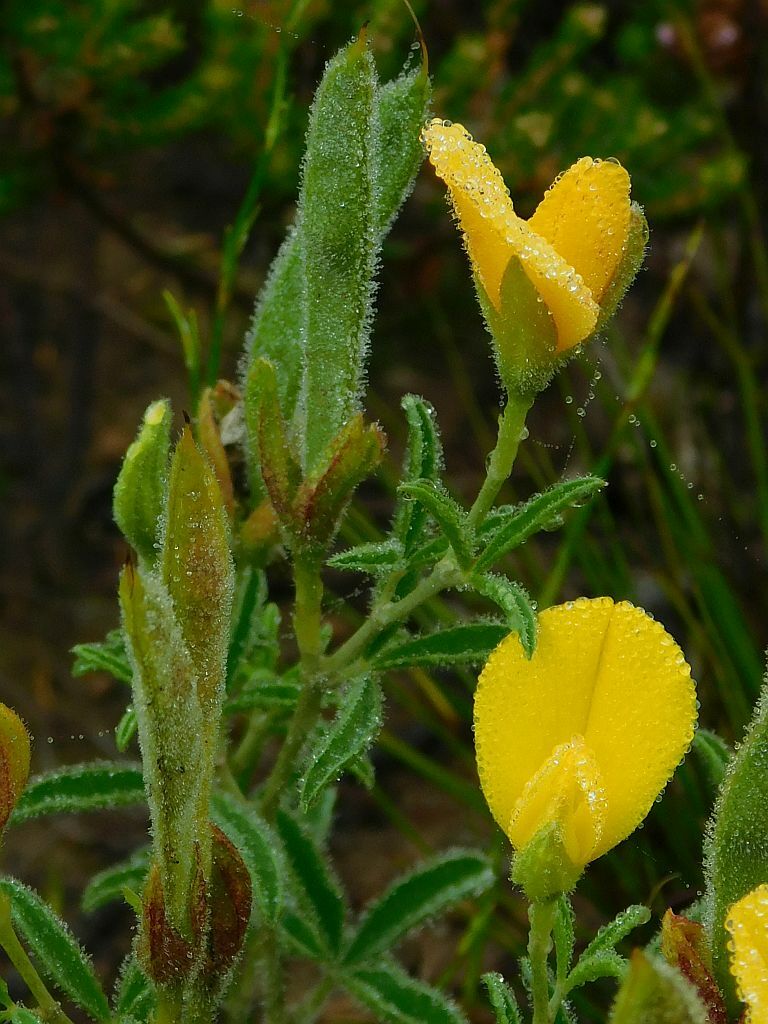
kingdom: Plantae
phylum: Tracheophyta
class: Magnoliopsida
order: Fabales
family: Fabaceae
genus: Argyrolobium
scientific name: Argyrolobium pachyphyllum
